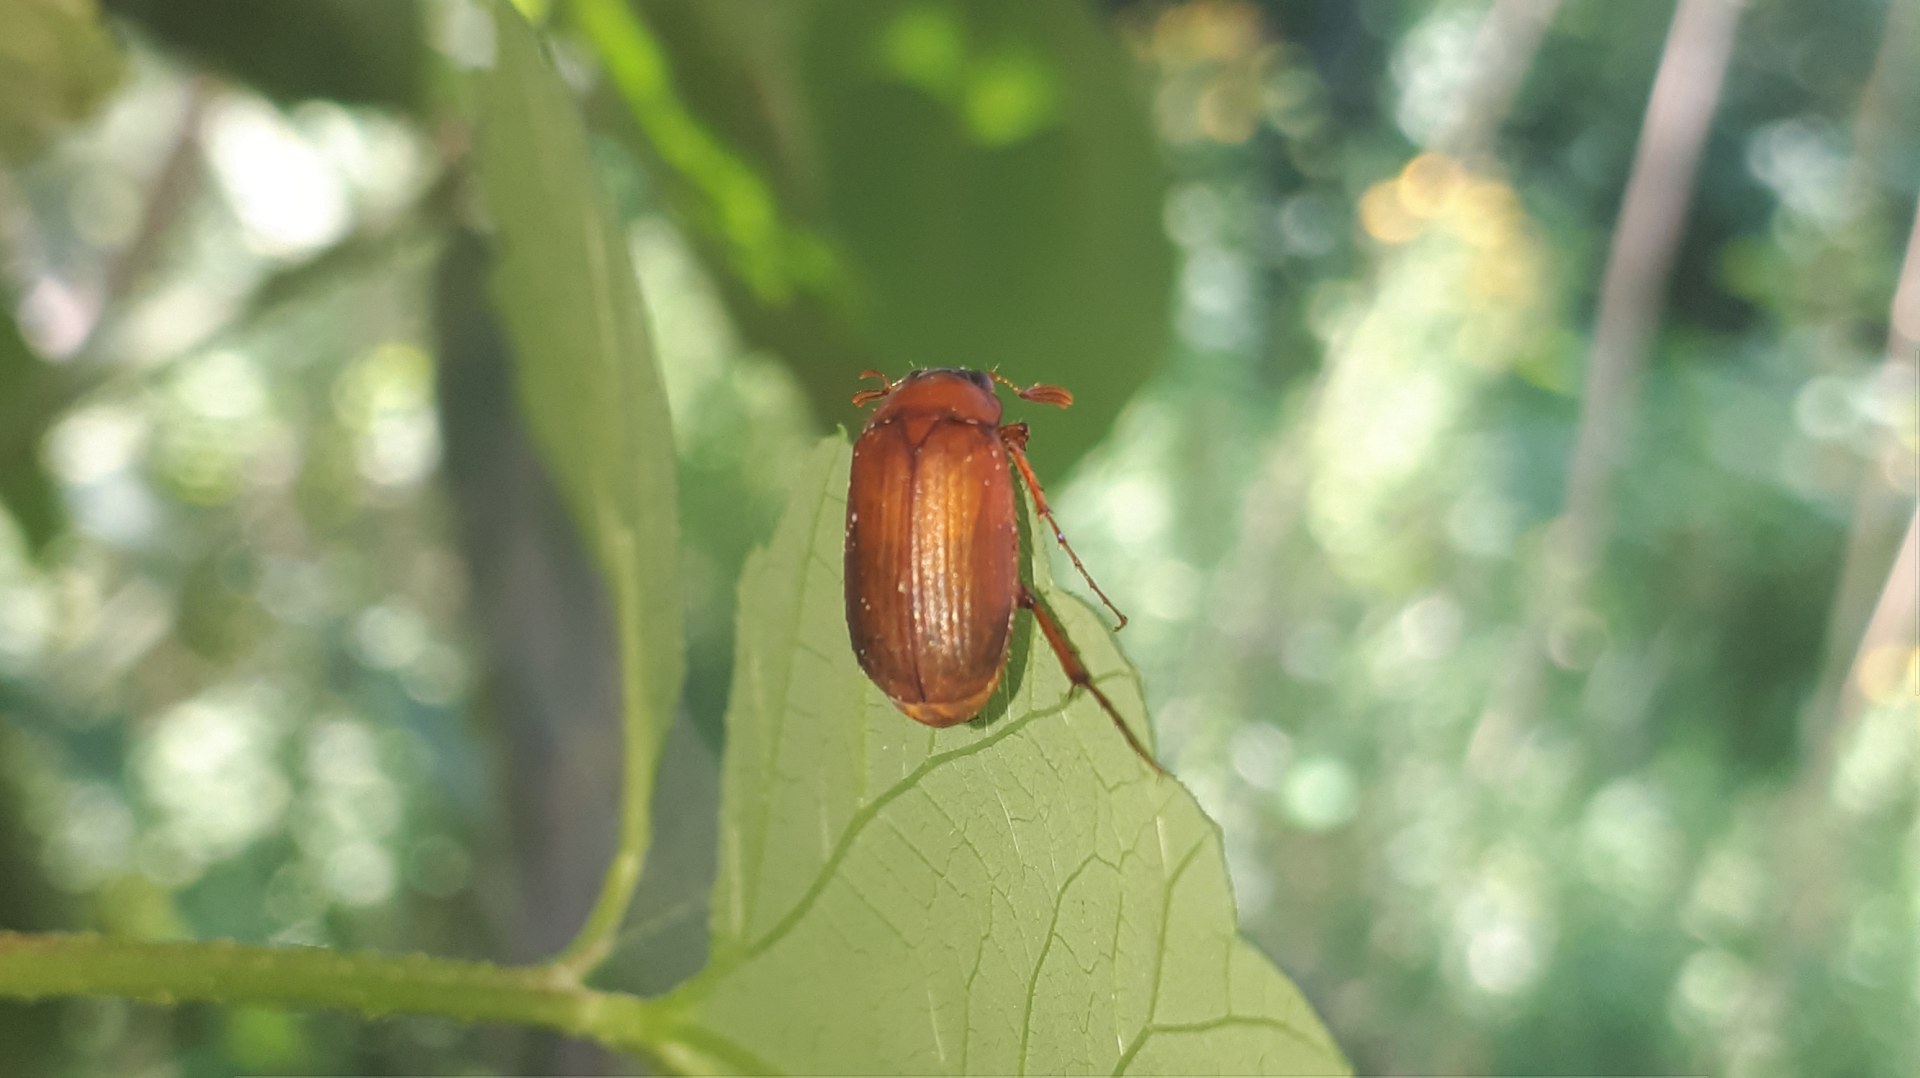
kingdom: Animalia
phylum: Arthropoda
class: Insecta
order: Coleoptera
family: Scarabaeidae
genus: Serica
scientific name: Serica brunnea
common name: Brown chafer
